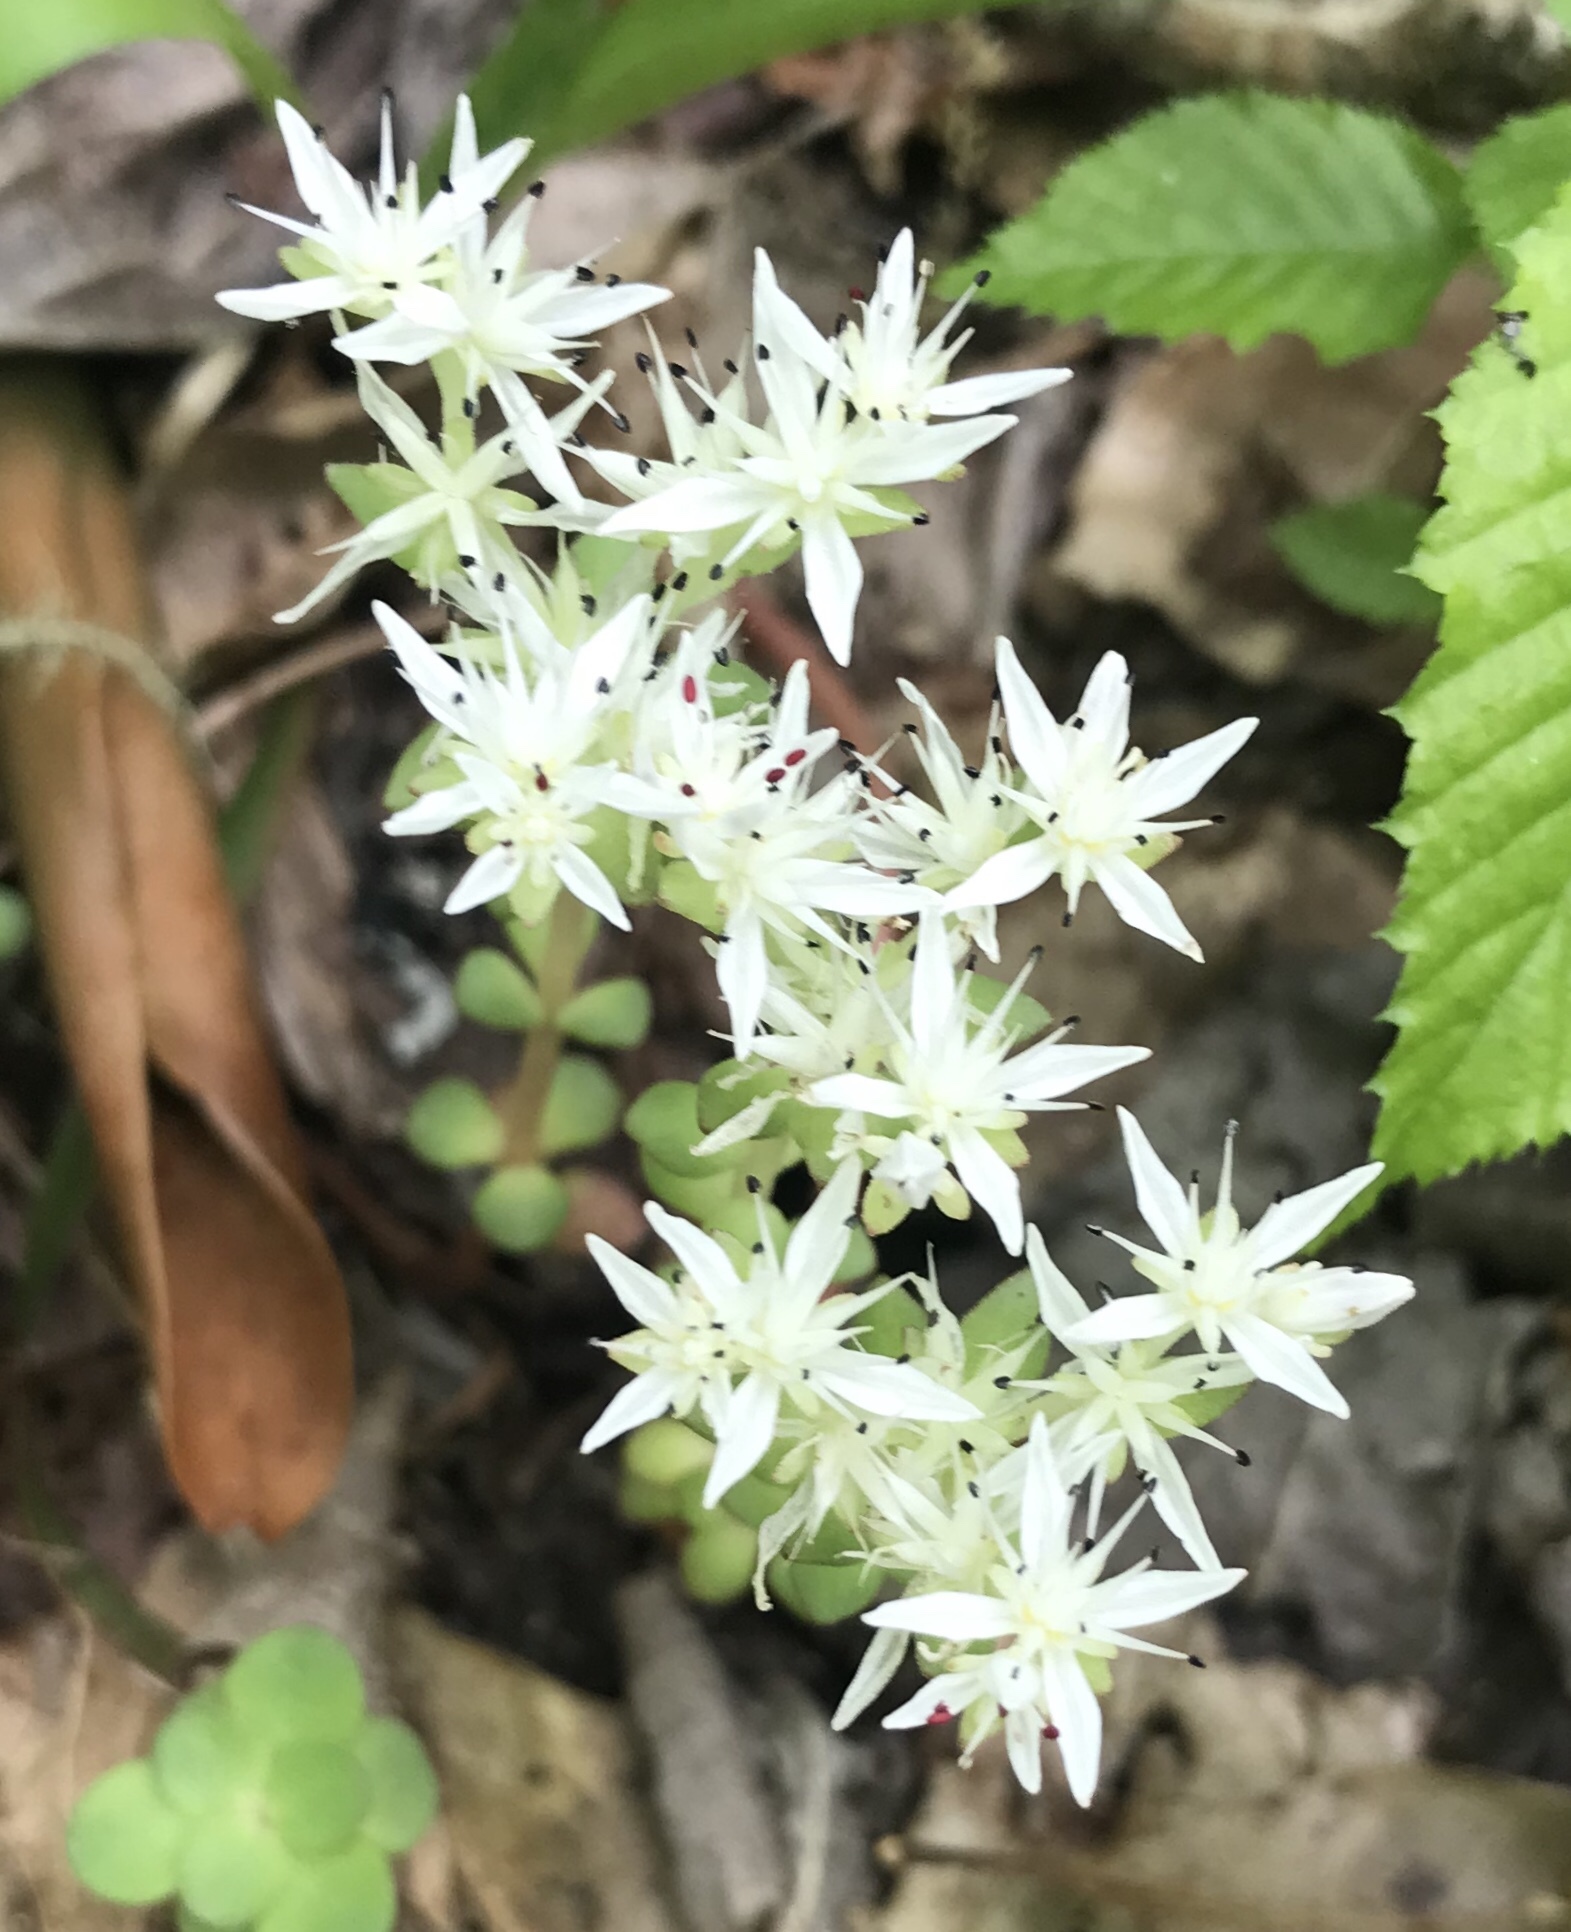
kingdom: Plantae
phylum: Tracheophyta
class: Magnoliopsida
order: Saxifragales
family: Crassulaceae
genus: Sedum
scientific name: Sedum ternatum
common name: Wild stonecrop
